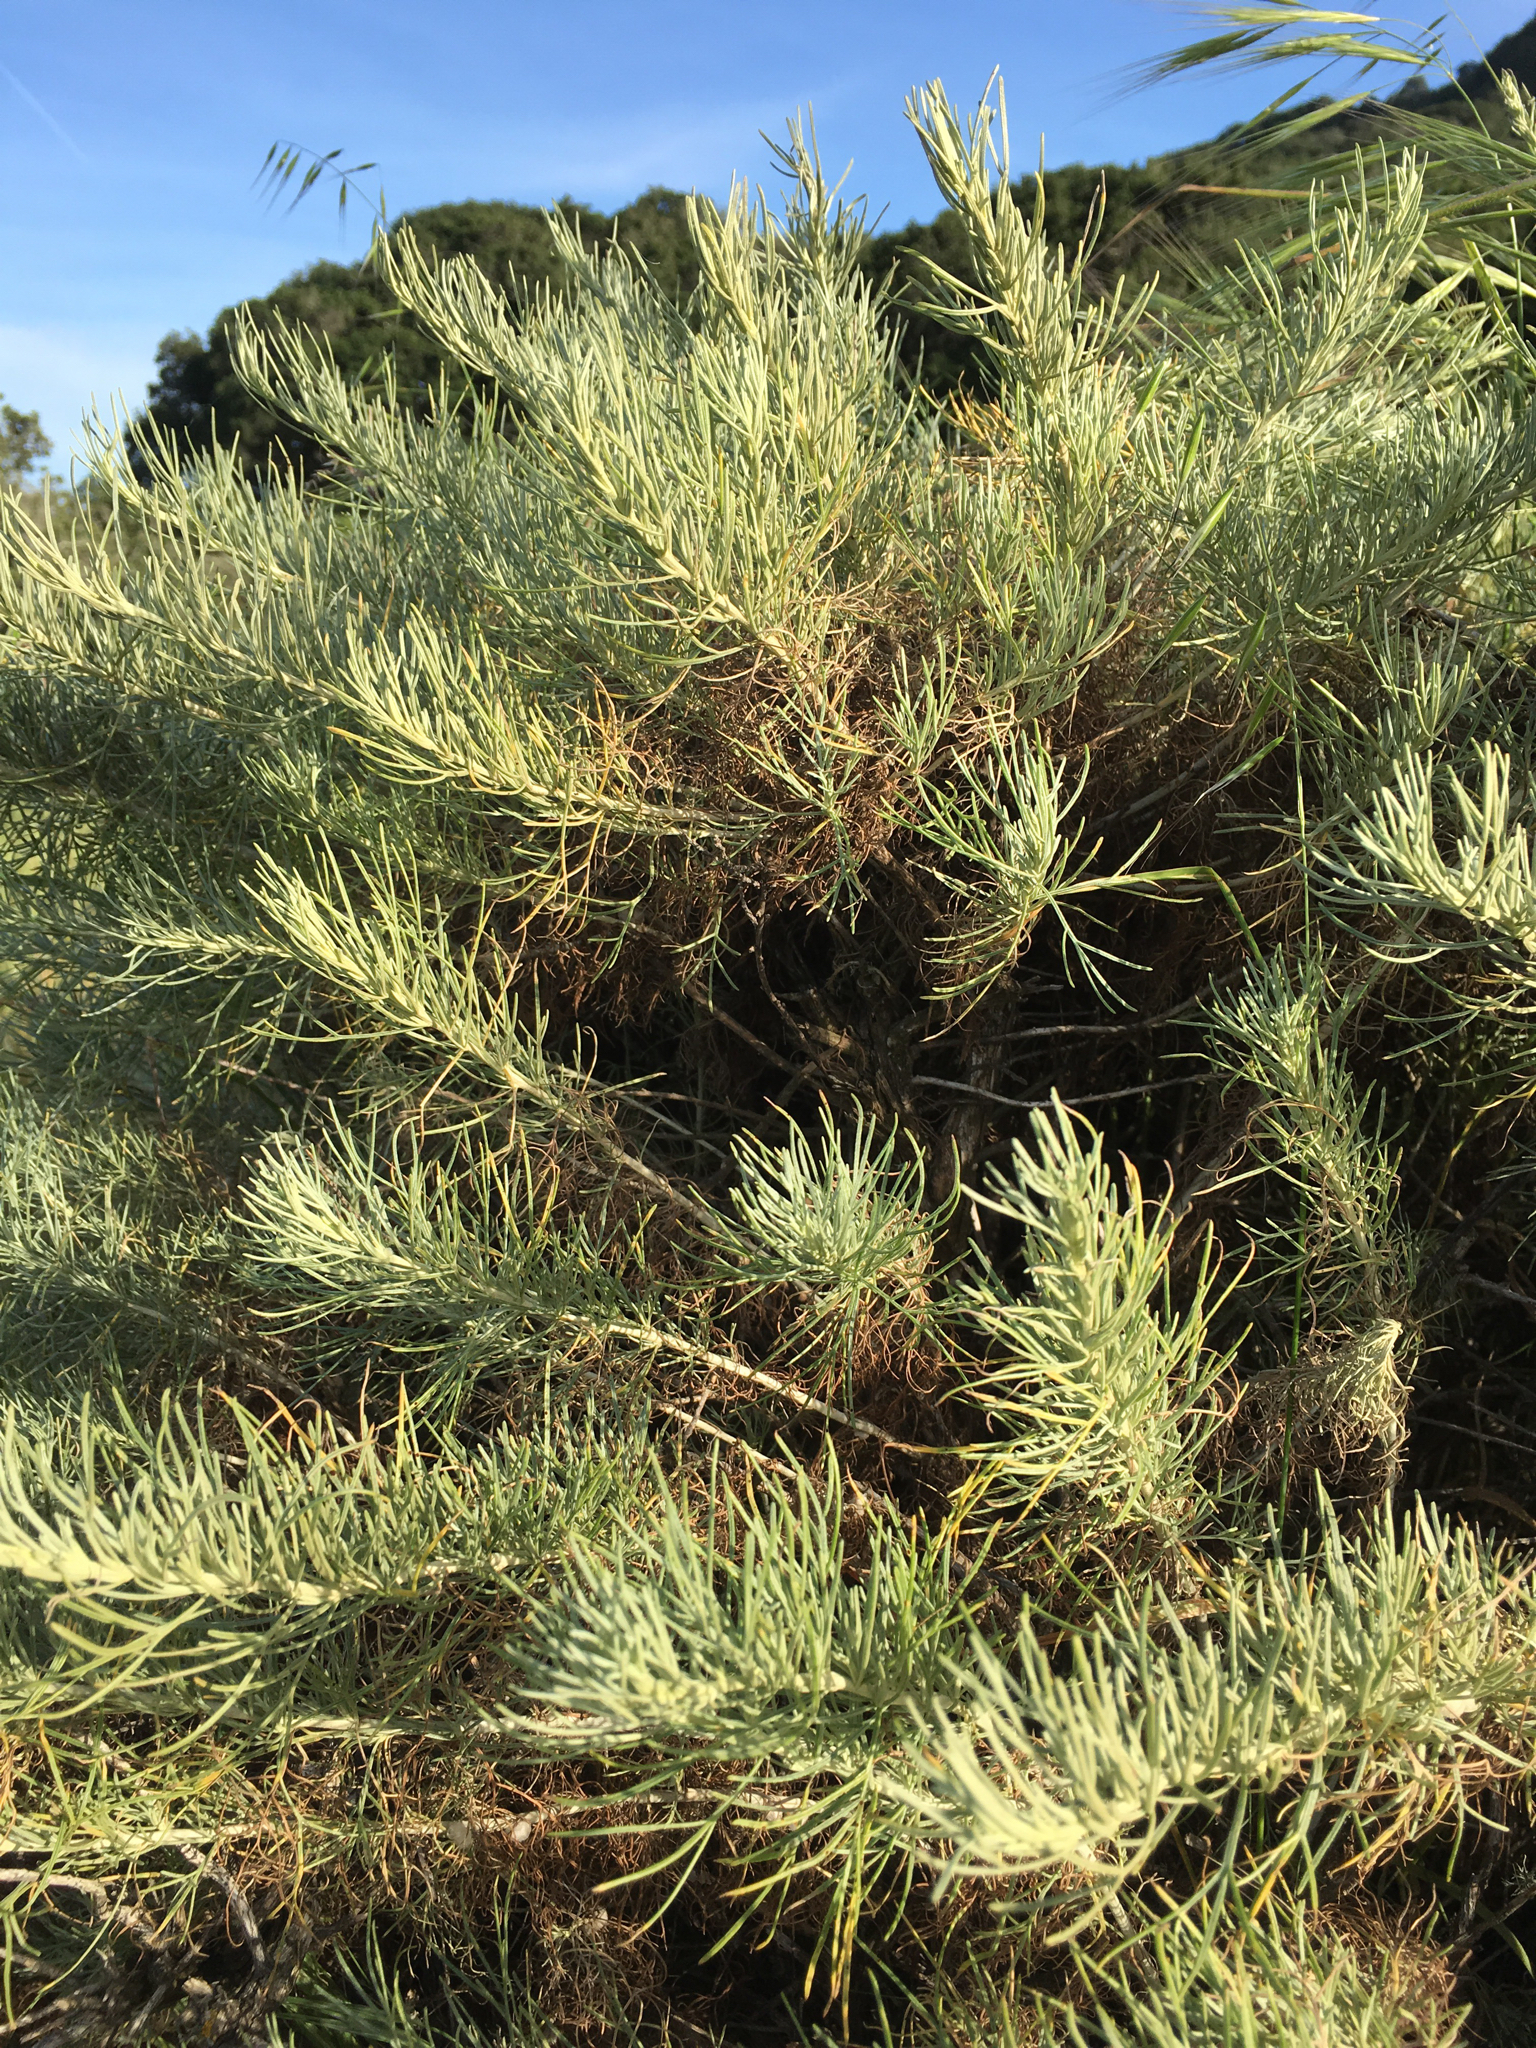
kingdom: Plantae
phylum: Tracheophyta
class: Magnoliopsida
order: Asterales
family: Asteraceae
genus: Artemisia
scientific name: Artemisia californica
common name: California sagebrush
